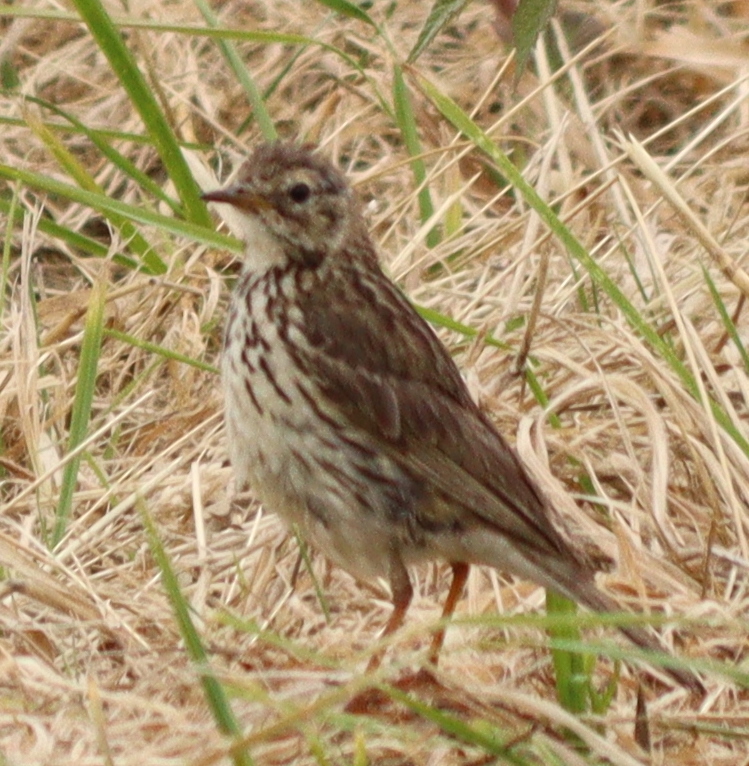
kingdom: Animalia
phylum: Chordata
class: Aves
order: Passeriformes
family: Motacillidae
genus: Anthus
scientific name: Anthus pratensis
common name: Meadow pipit
